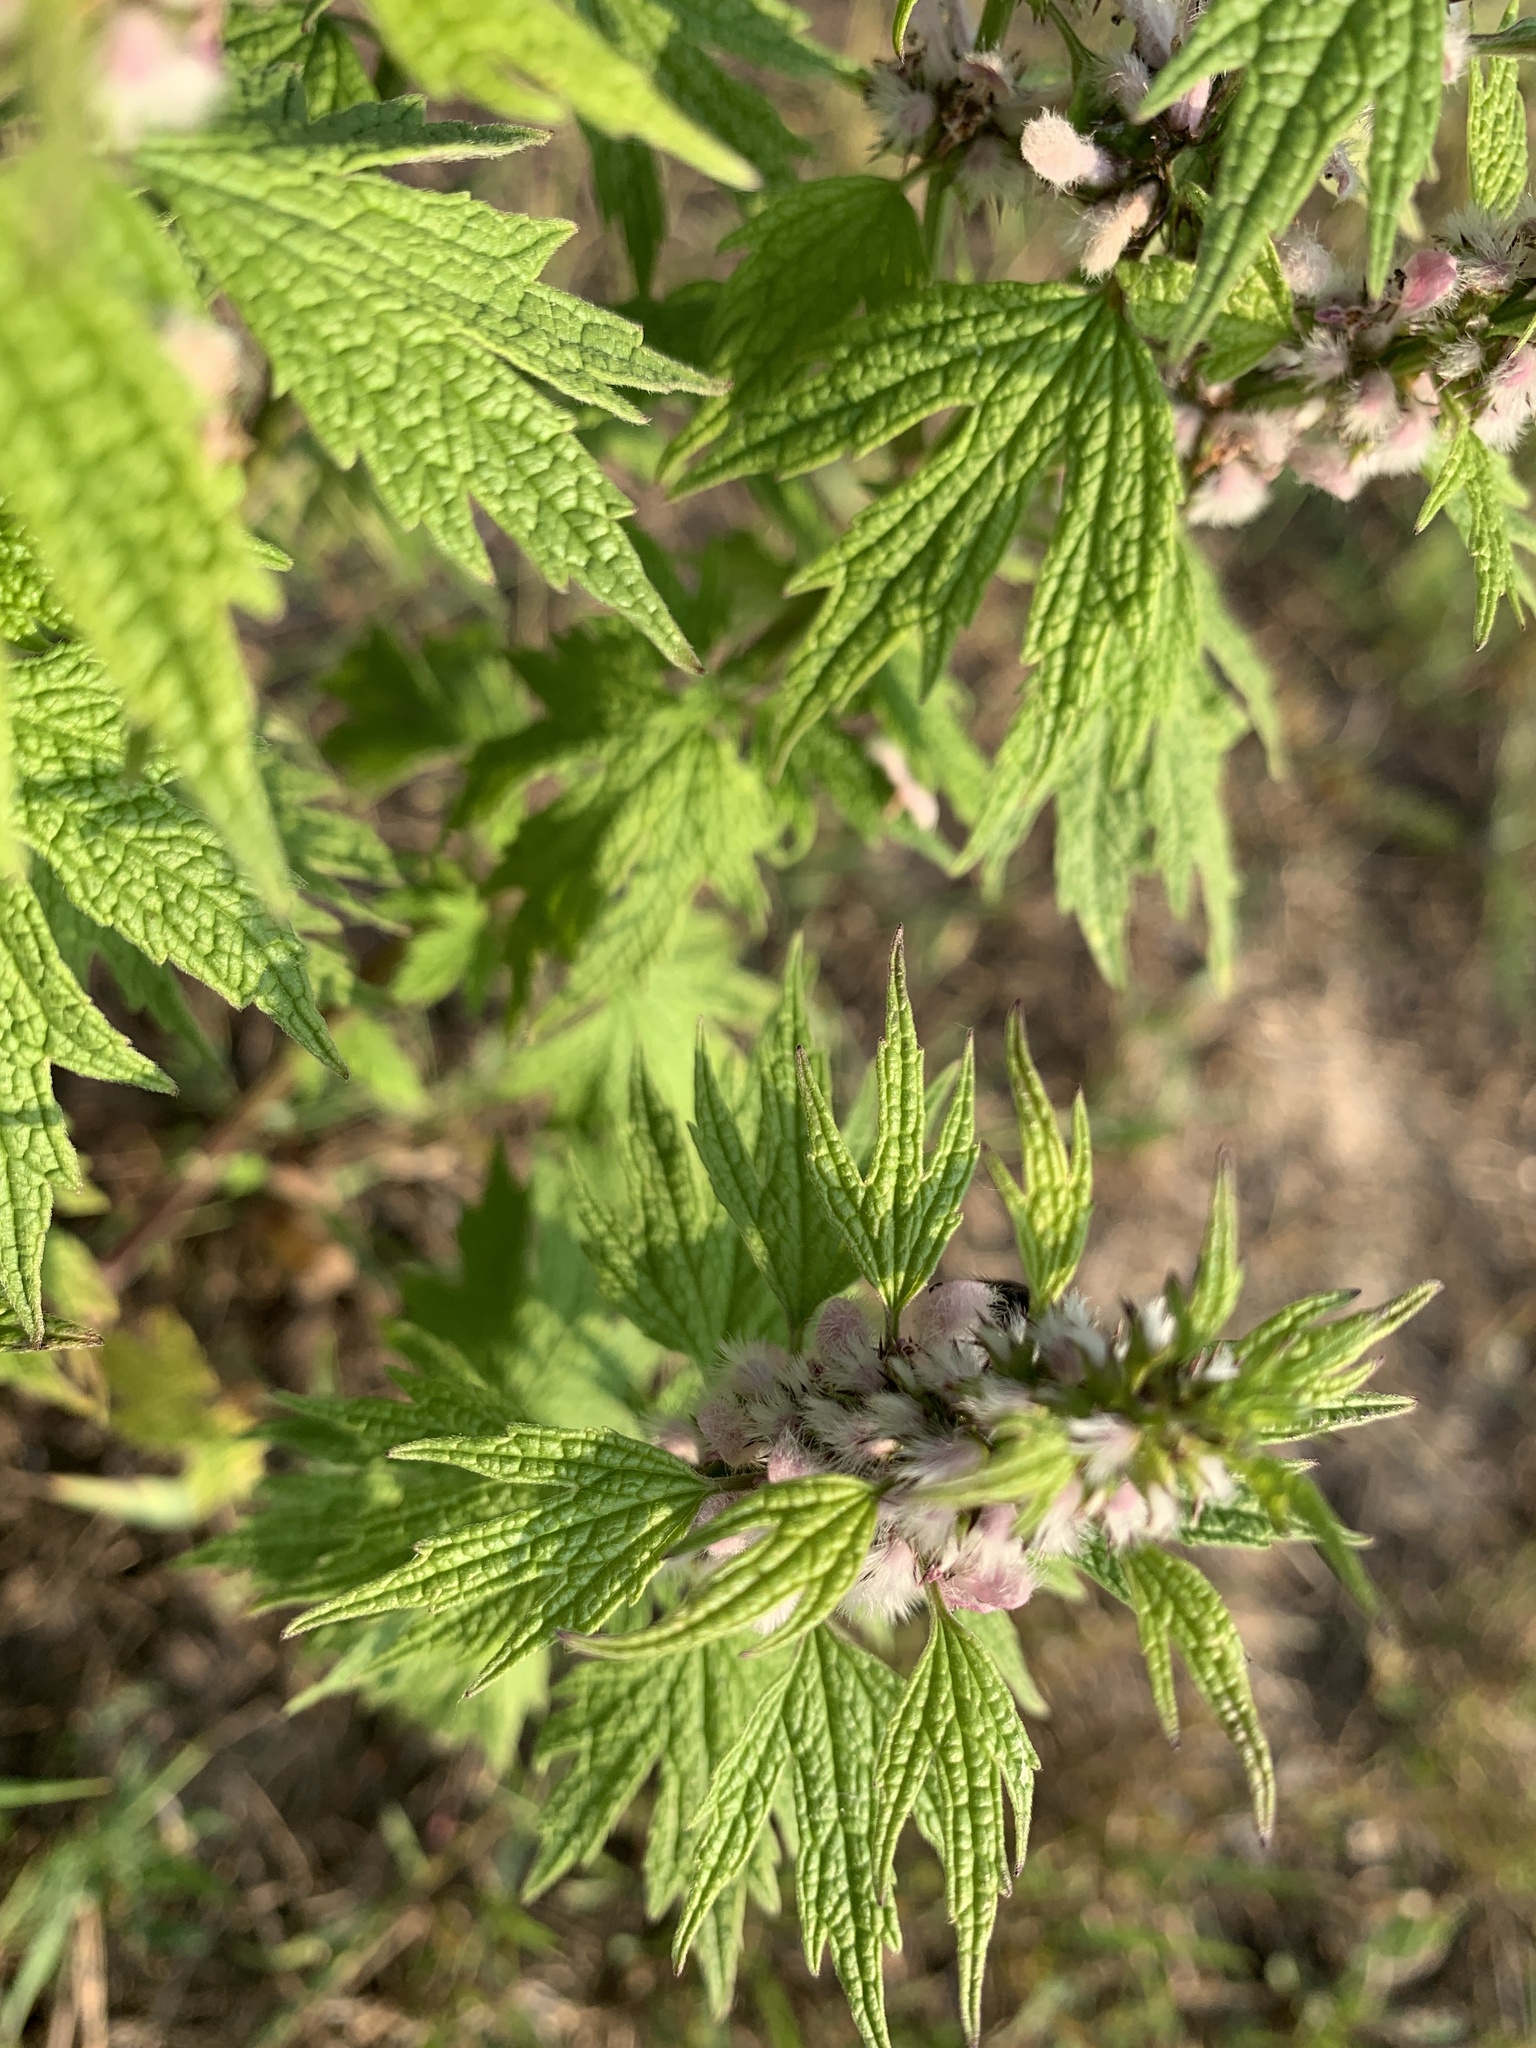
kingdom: Plantae
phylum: Tracheophyta
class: Magnoliopsida
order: Lamiales
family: Lamiaceae
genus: Leonurus
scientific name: Leonurus cardiaca
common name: Motherwort
